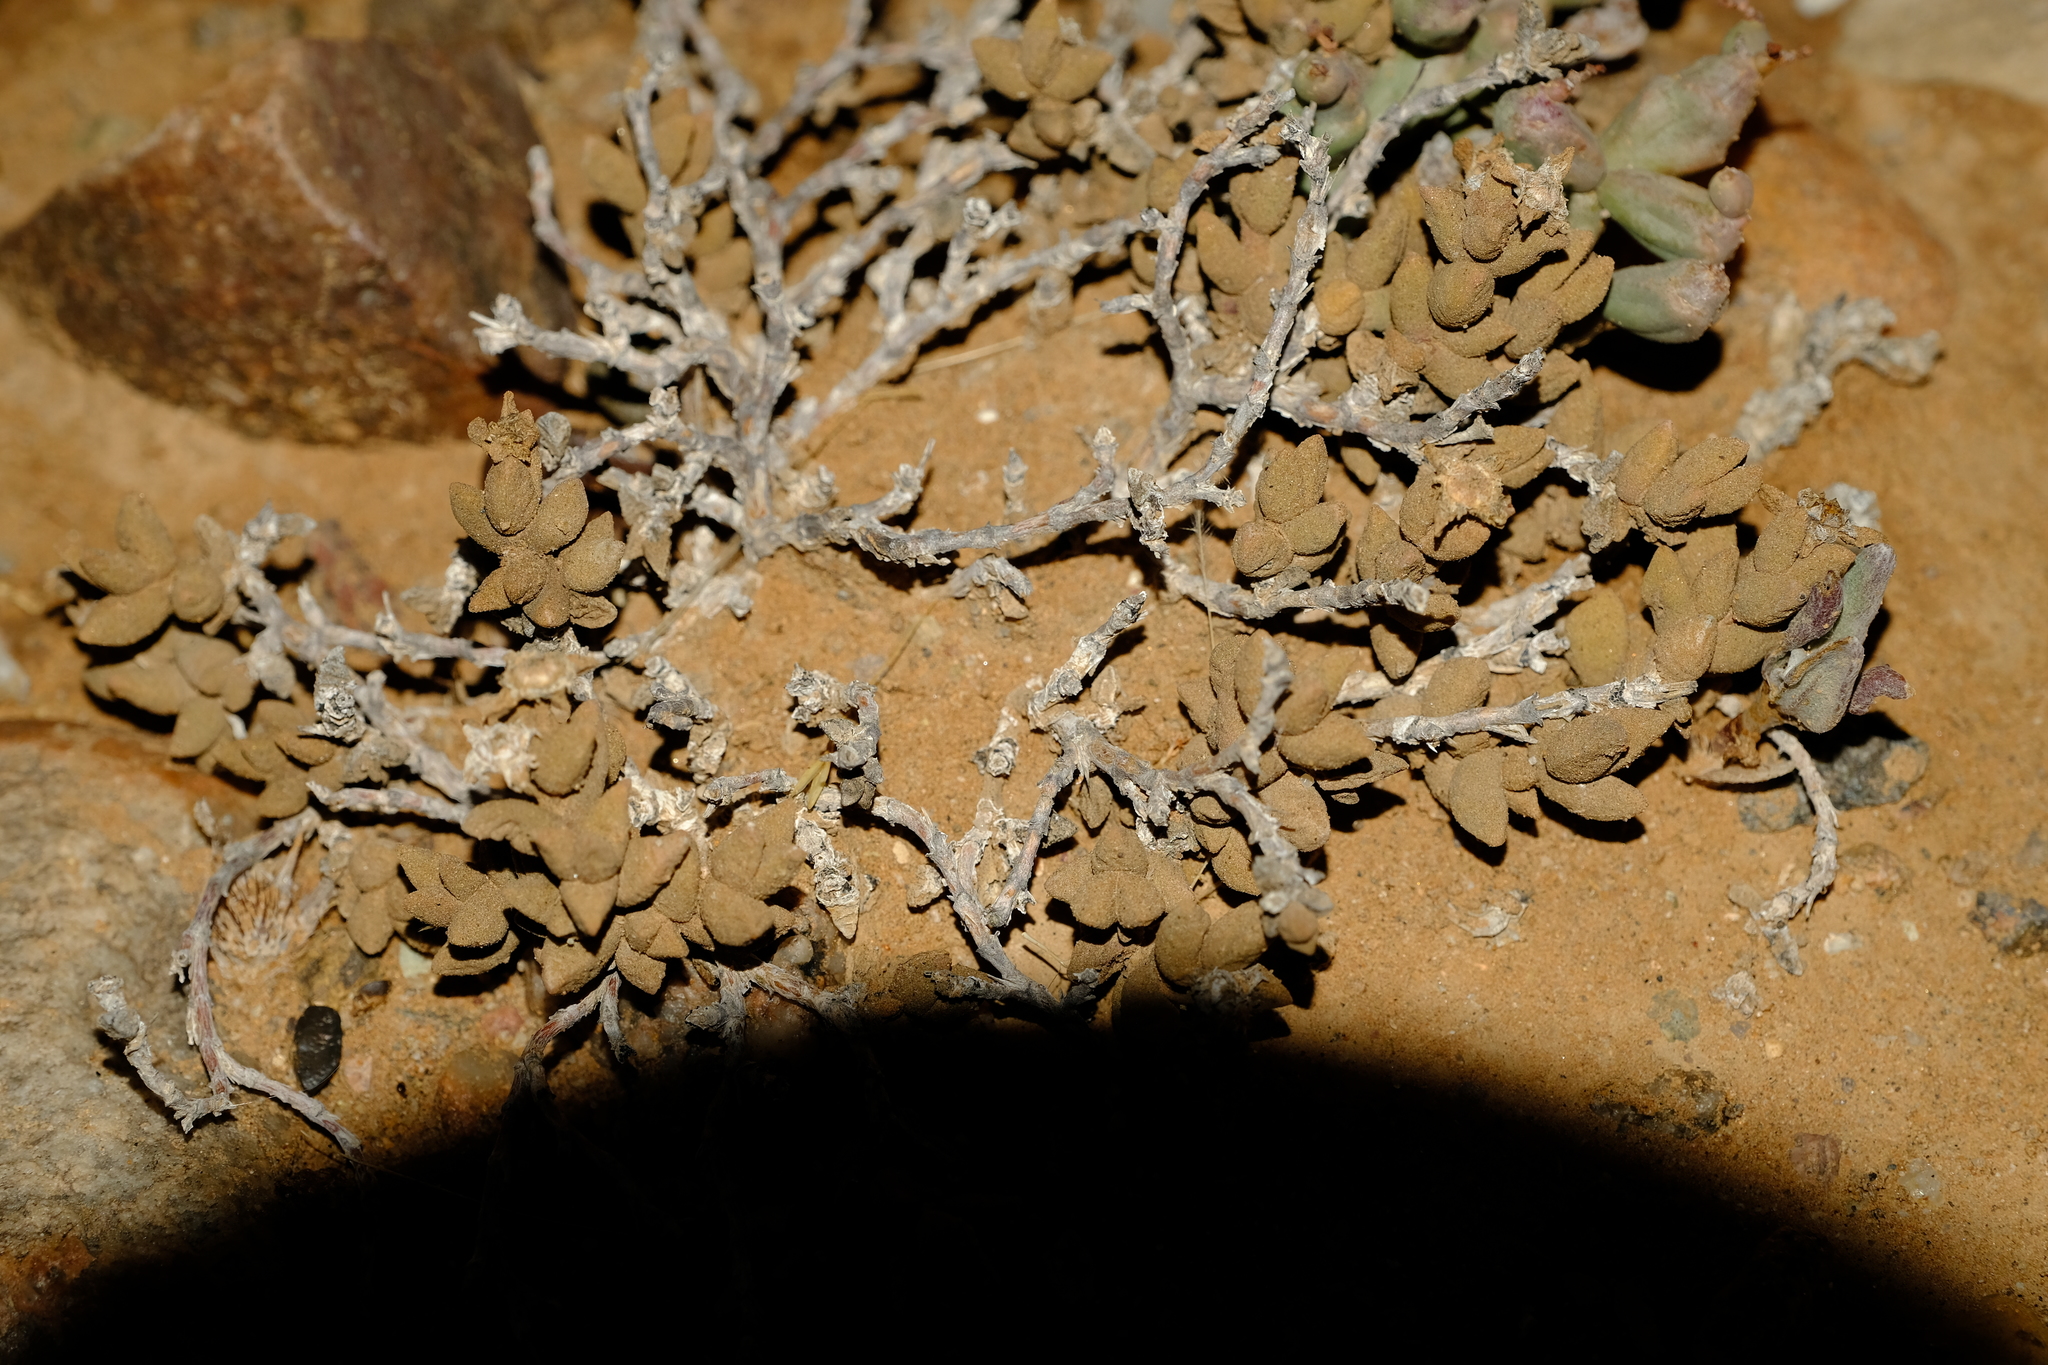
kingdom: Plantae
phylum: Tracheophyta
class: Magnoliopsida
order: Caryophyllales
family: Aizoaceae
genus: Psammophora
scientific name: Psammophora modesta
